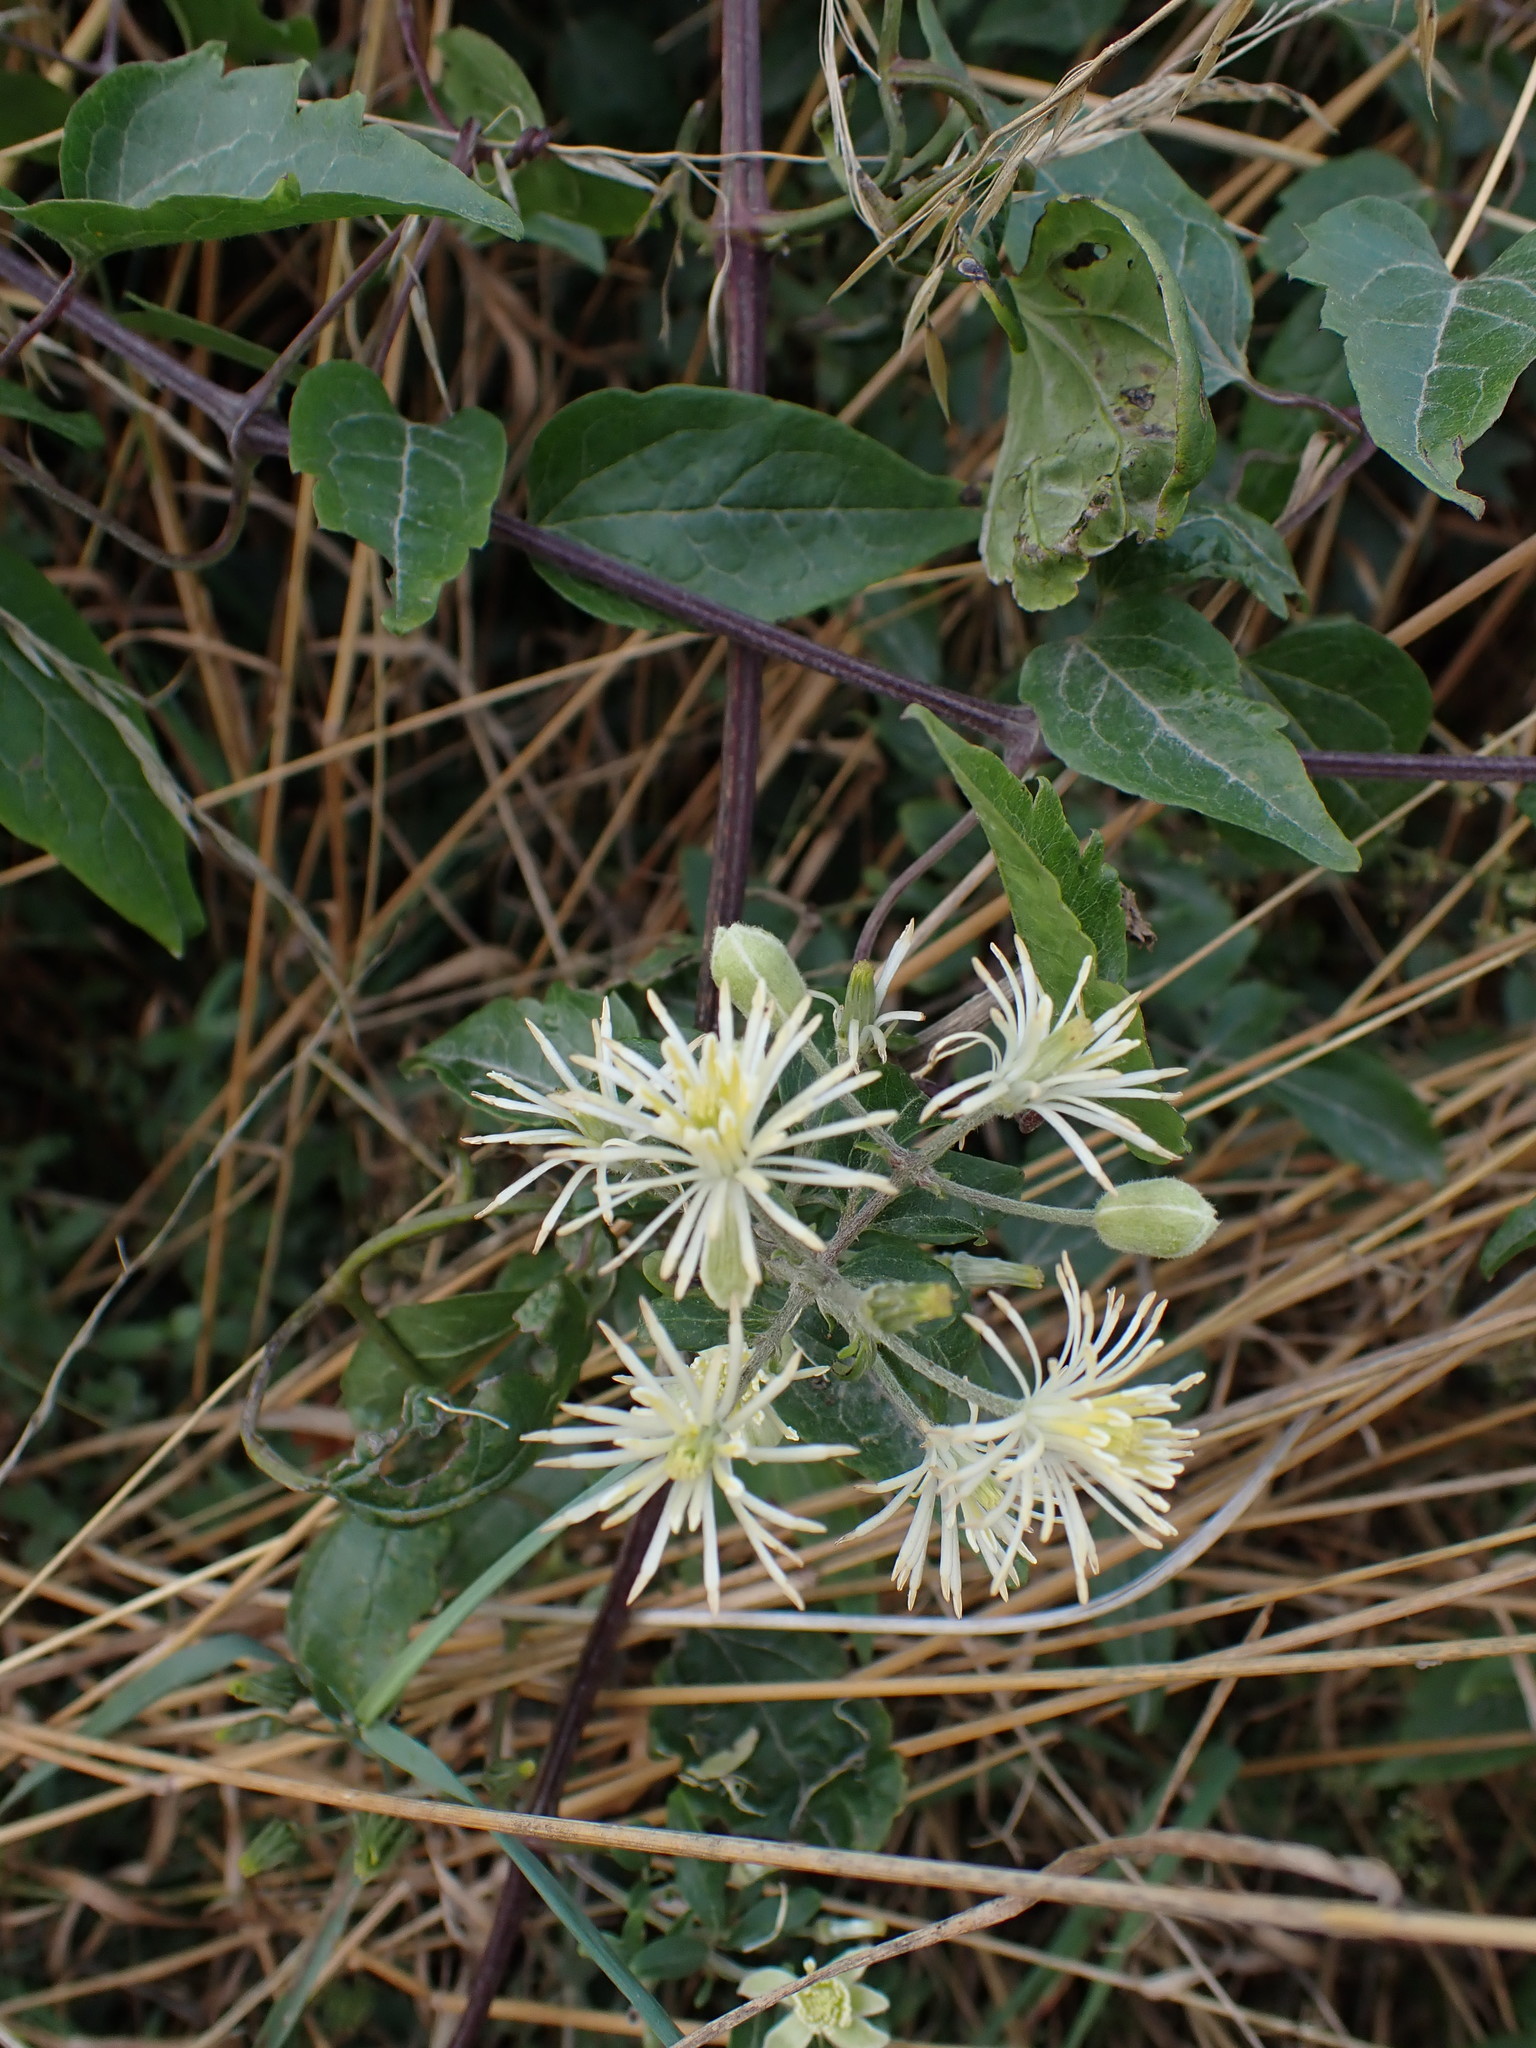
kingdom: Plantae
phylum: Tracheophyta
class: Magnoliopsida
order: Ranunculales
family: Ranunculaceae
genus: Clematis
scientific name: Clematis vitalba
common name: Evergreen clematis
